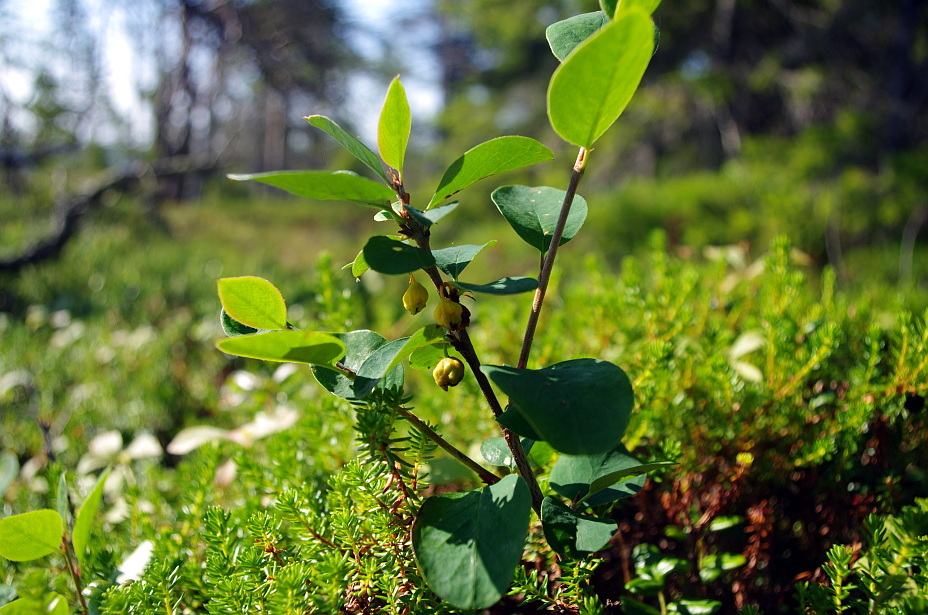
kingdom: Plantae
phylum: Tracheophyta
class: Magnoliopsida
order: Rosales
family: Rosaceae
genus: Cotoneaster
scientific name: Cotoneaster integerrimus
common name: Wild cotoneaster
